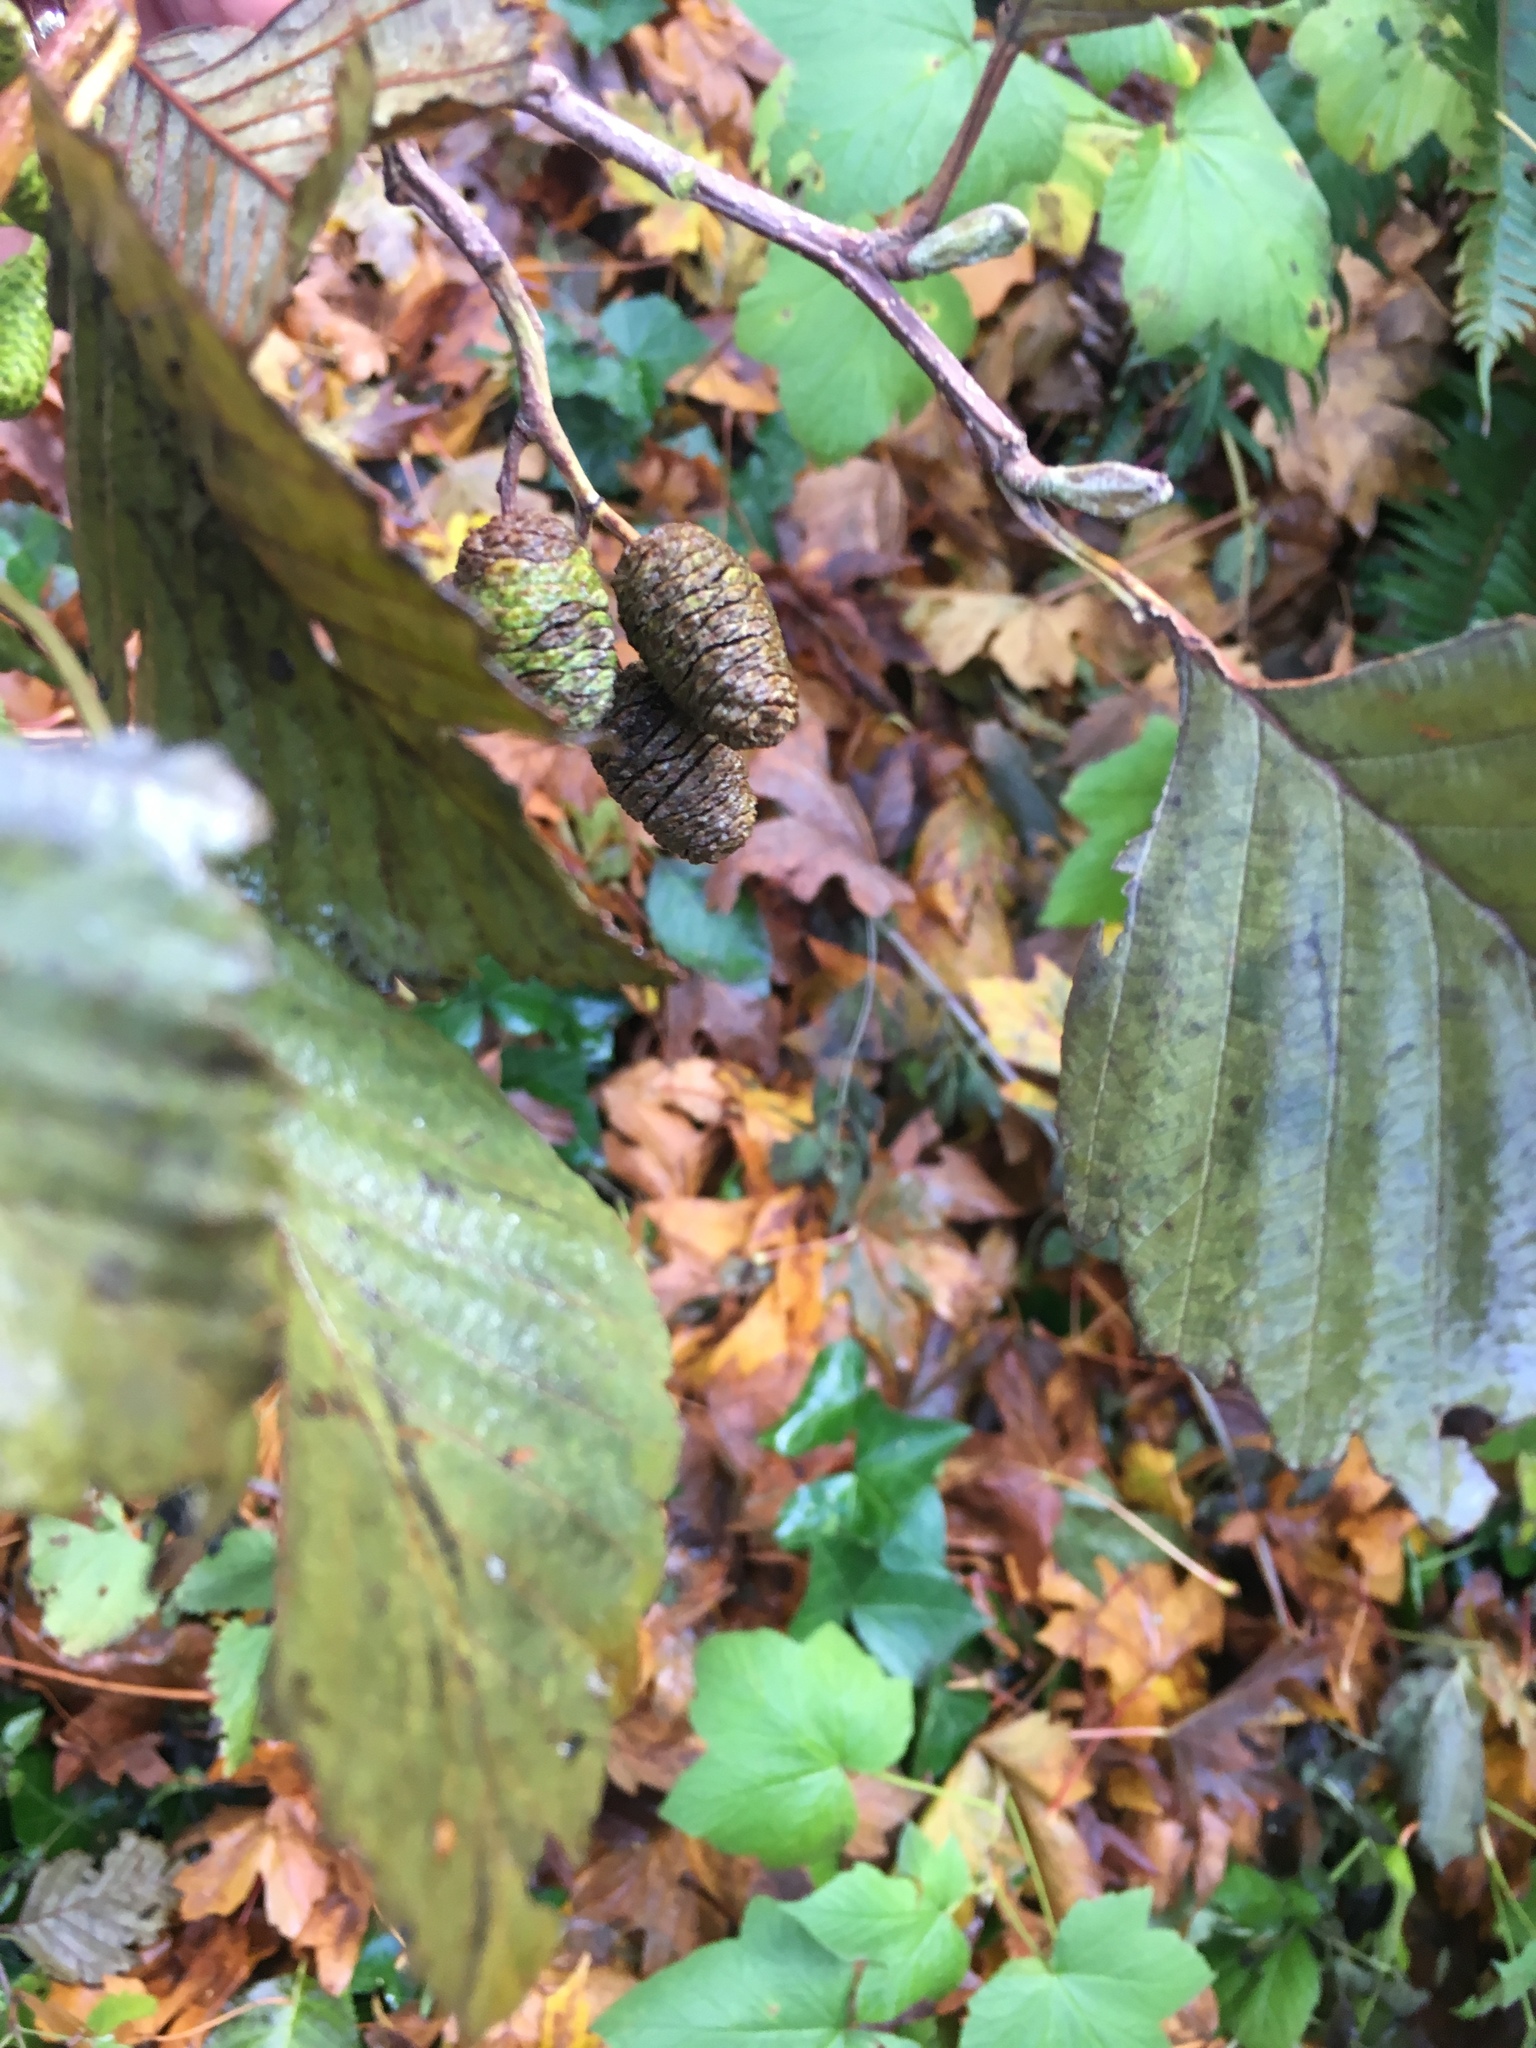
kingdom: Plantae
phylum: Tracheophyta
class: Magnoliopsida
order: Fagales
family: Betulaceae
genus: Alnus
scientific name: Alnus rubra
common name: Red alder
